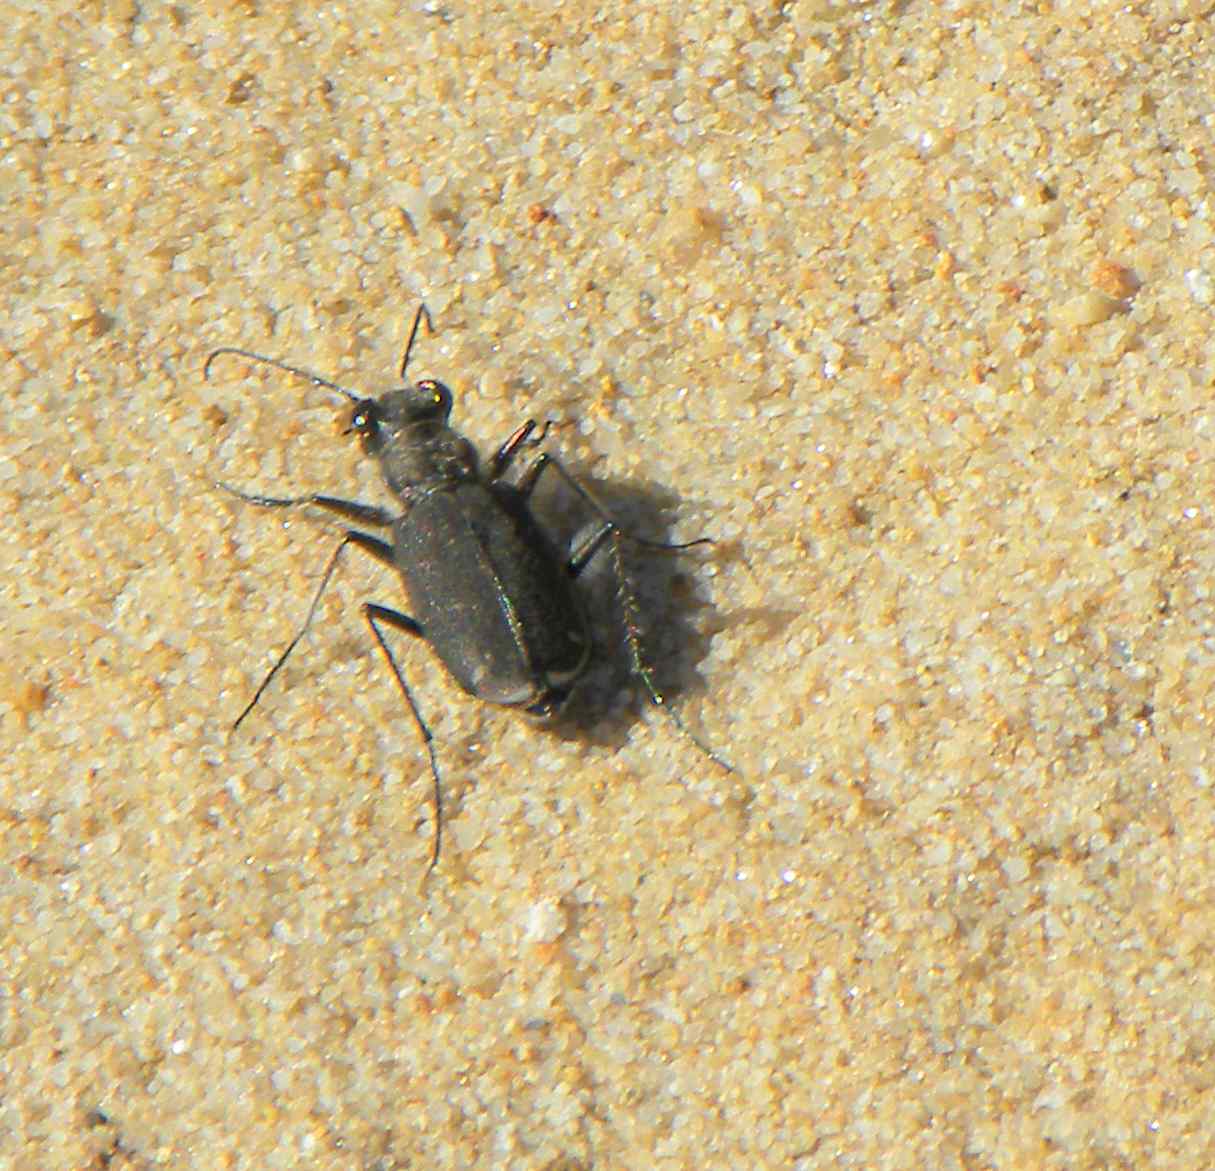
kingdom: Animalia
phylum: Arthropoda
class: Insecta
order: Coleoptera
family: Carabidae
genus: Cicindela
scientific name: Cicindela tranquebarica
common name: Oblique-lined tiger beetle
